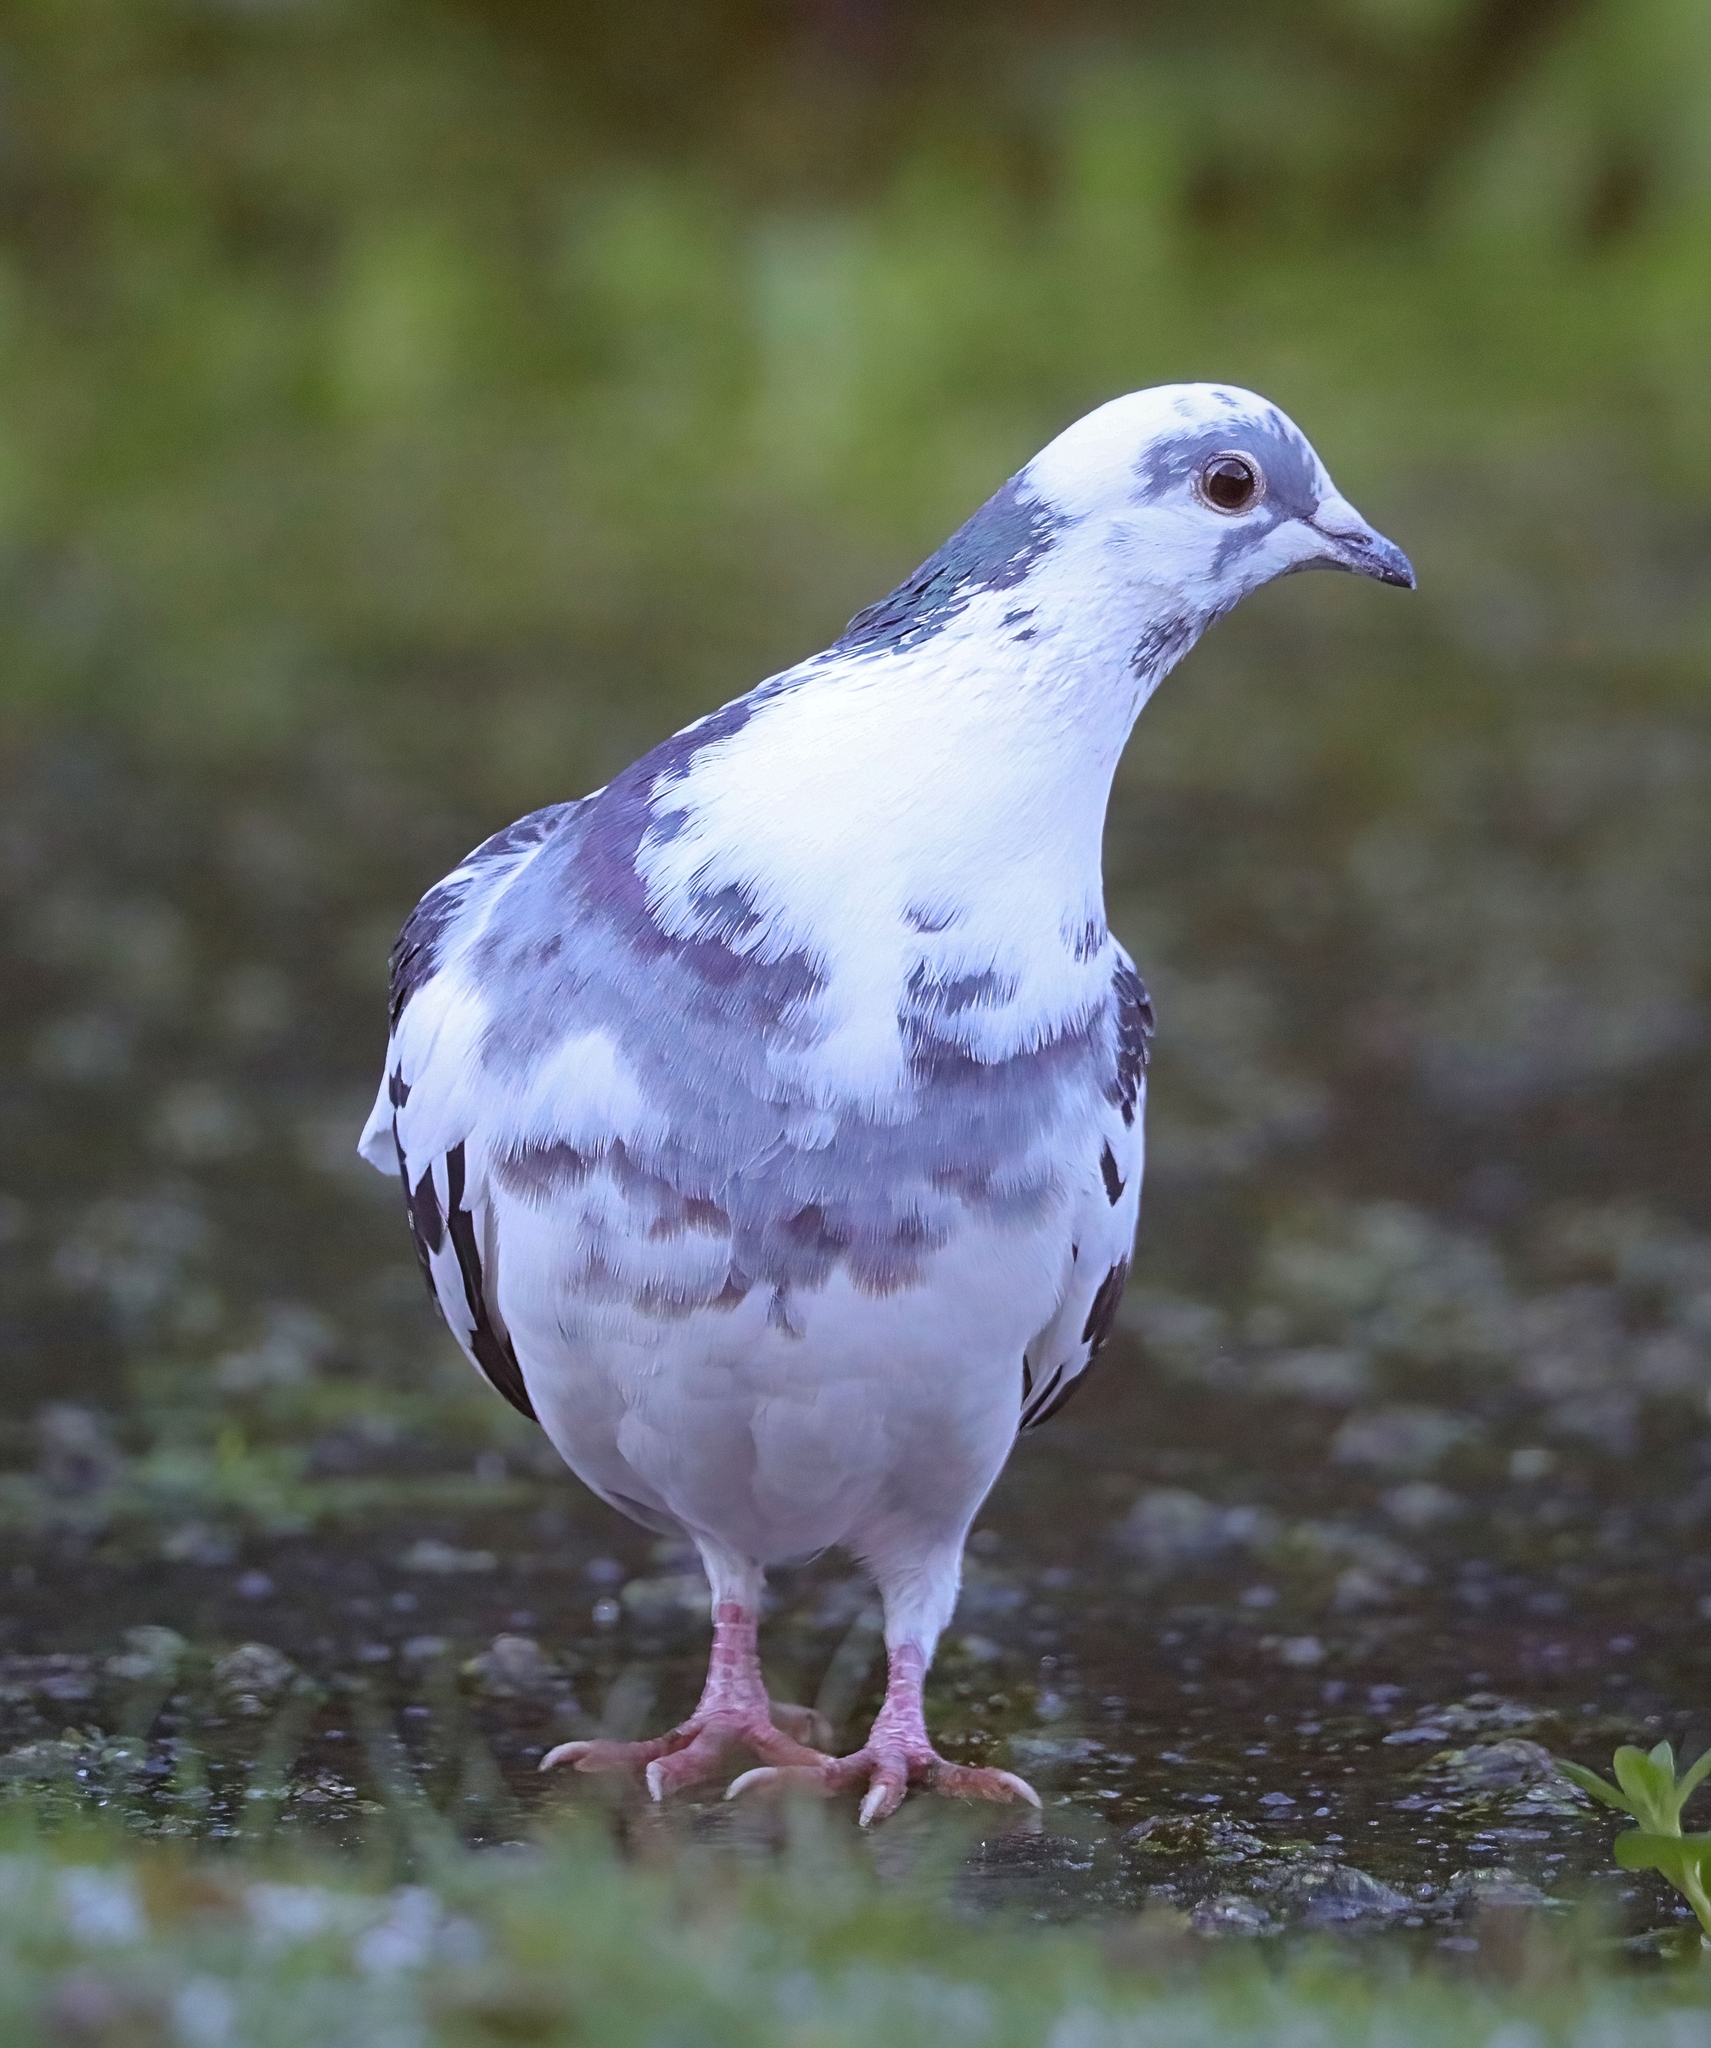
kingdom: Animalia
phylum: Chordata
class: Aves
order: Columbiformes
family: Columbidae
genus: Columba
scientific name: Columba livia
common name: Rock pigeon
